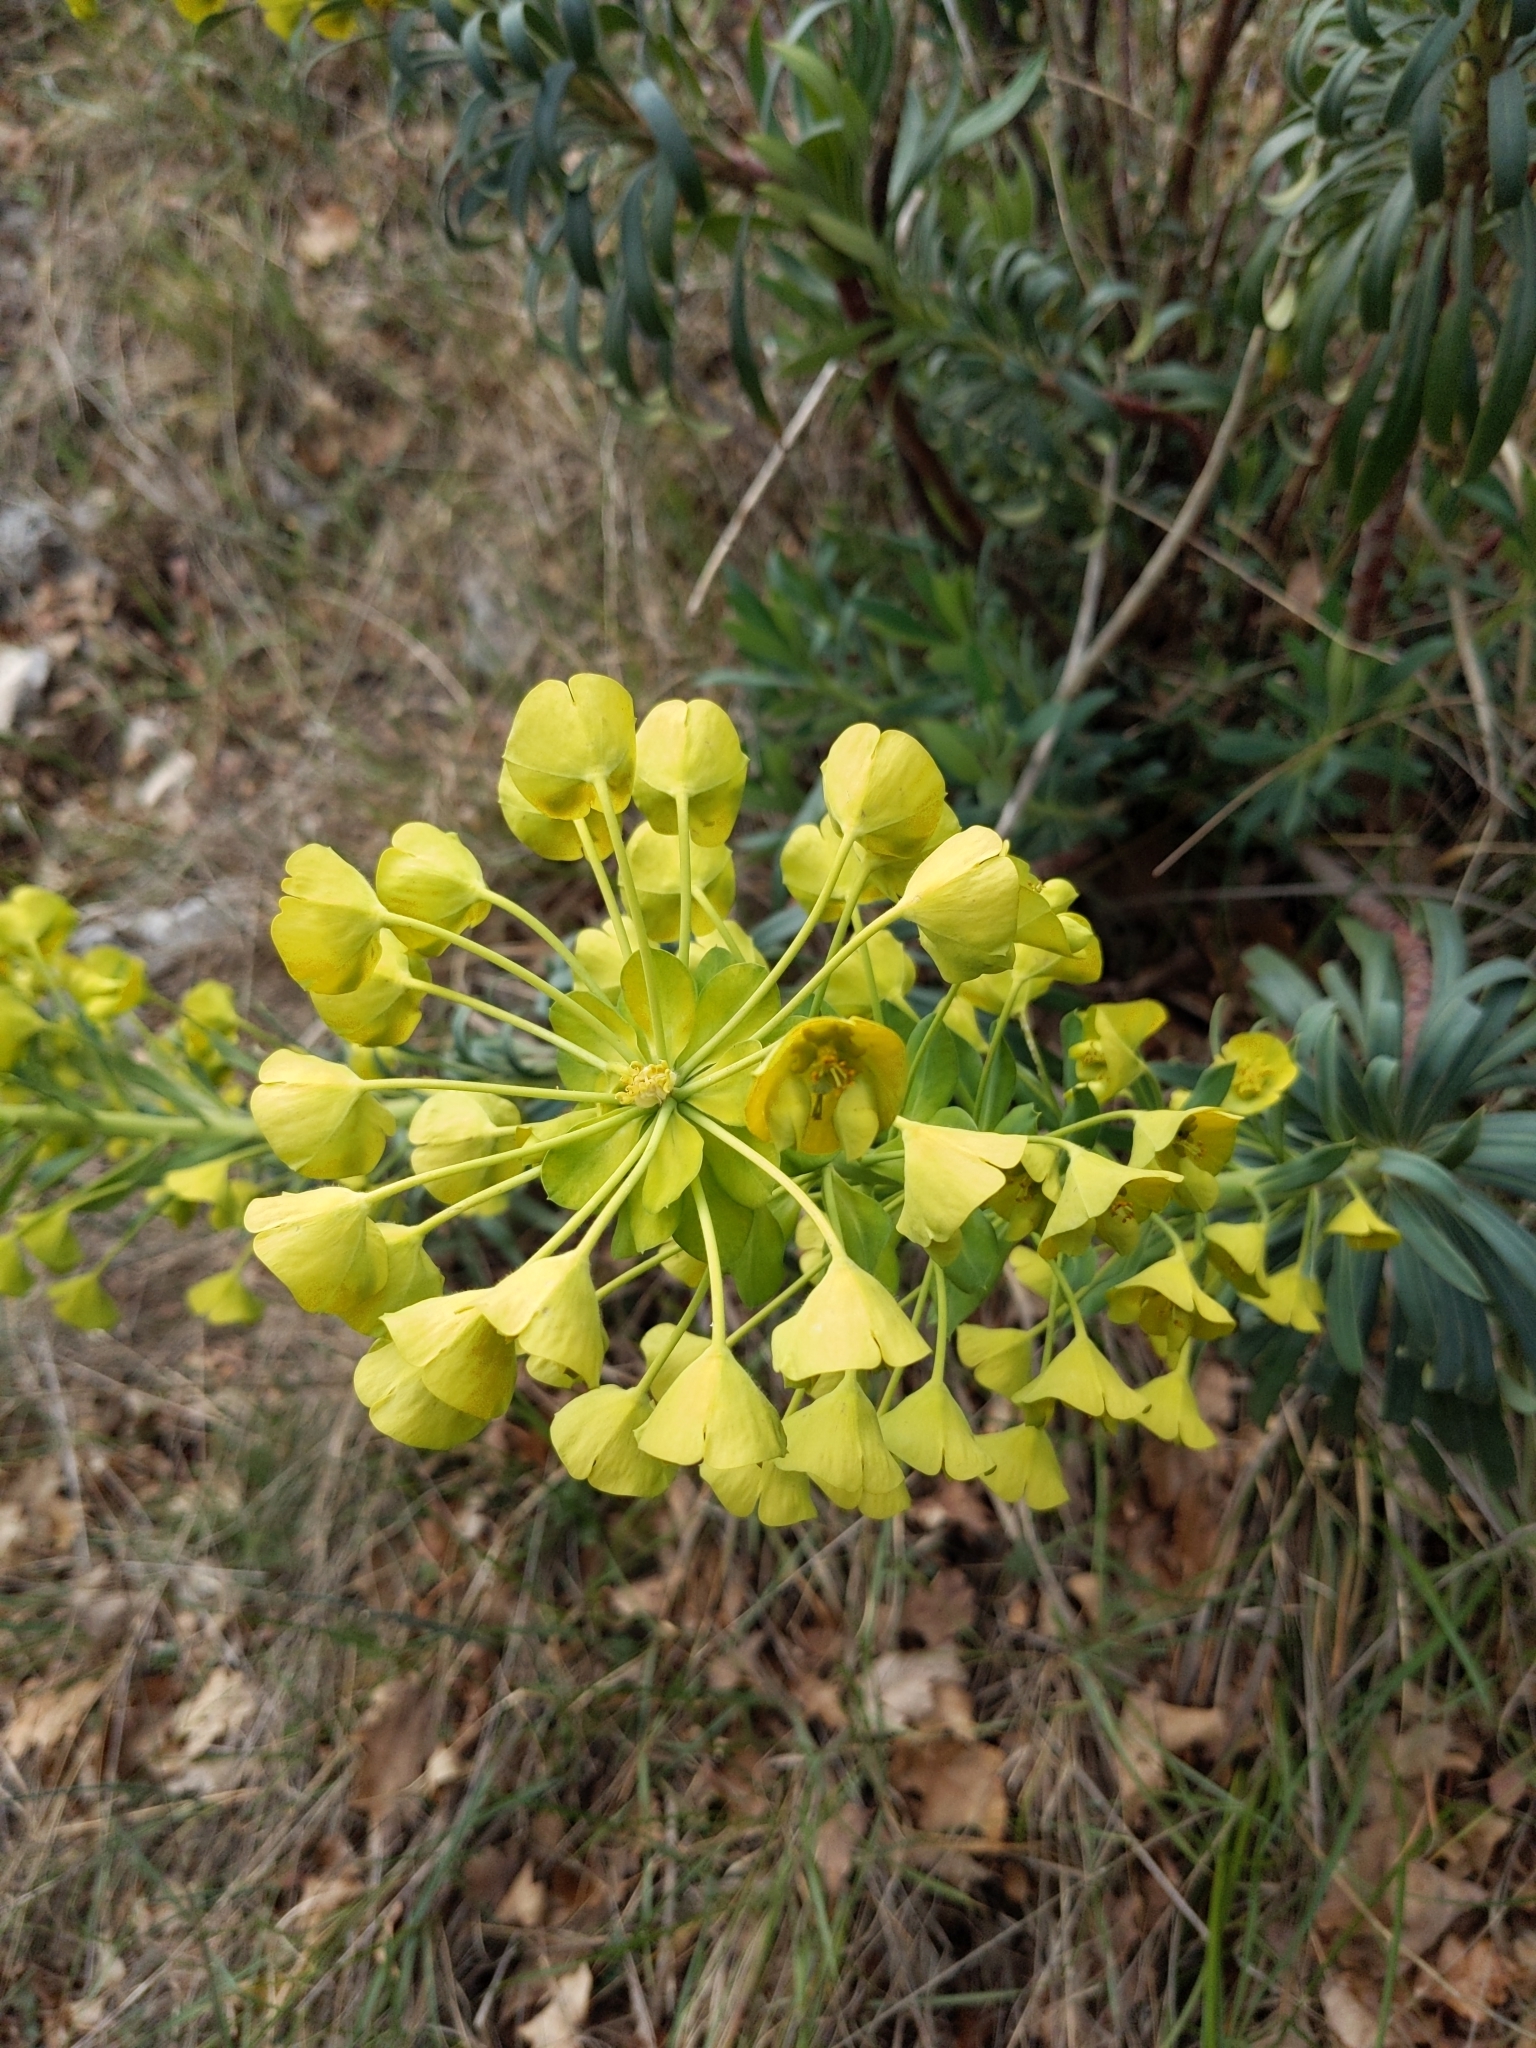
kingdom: Plantae
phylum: Tracheophyta
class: Magnoliopsida
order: Malpighiales
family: Euphorbiaceae
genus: Euphorbia
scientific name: Euphorbia characias
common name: Mediterranean spurge
